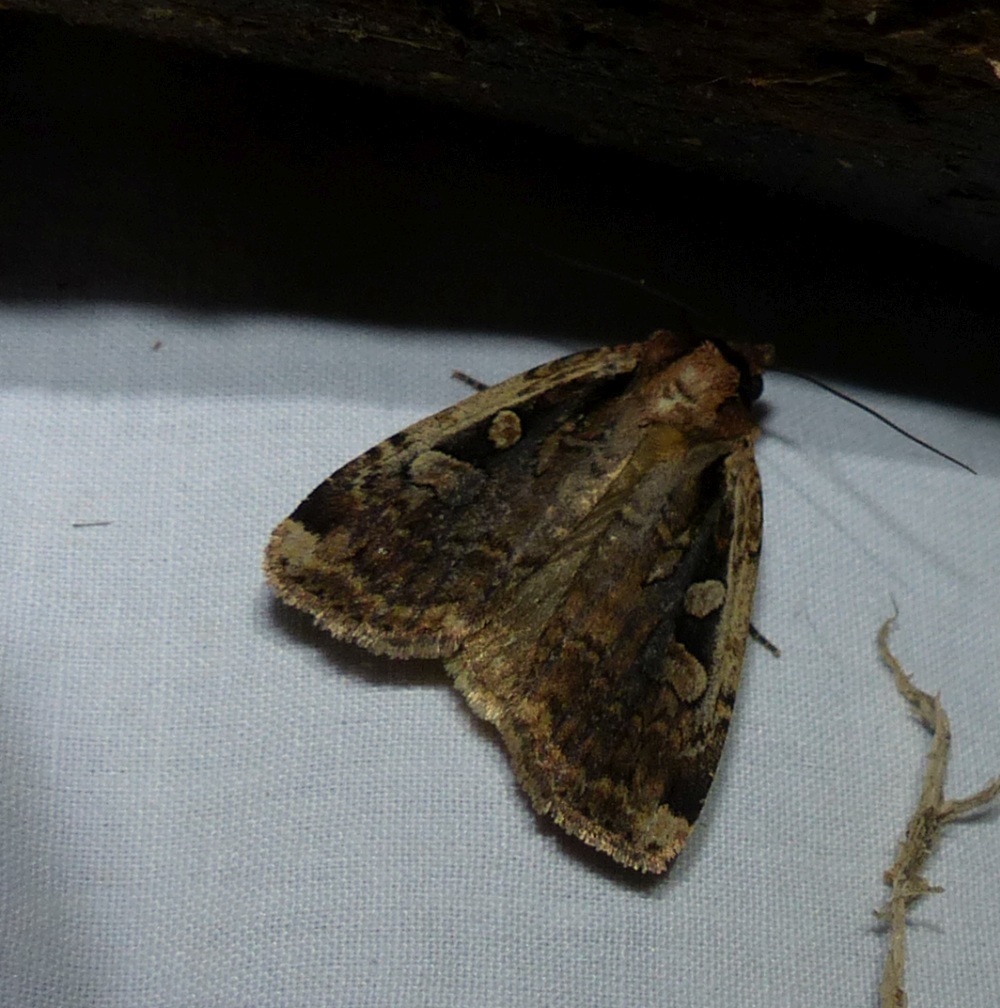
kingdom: Animalia
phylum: Arthropoda
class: Insecta
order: Lepidoptera
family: Noctuidae
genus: Eueretagrotis
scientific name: Eueretagrotis sigmoides
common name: Sigmoid dart
